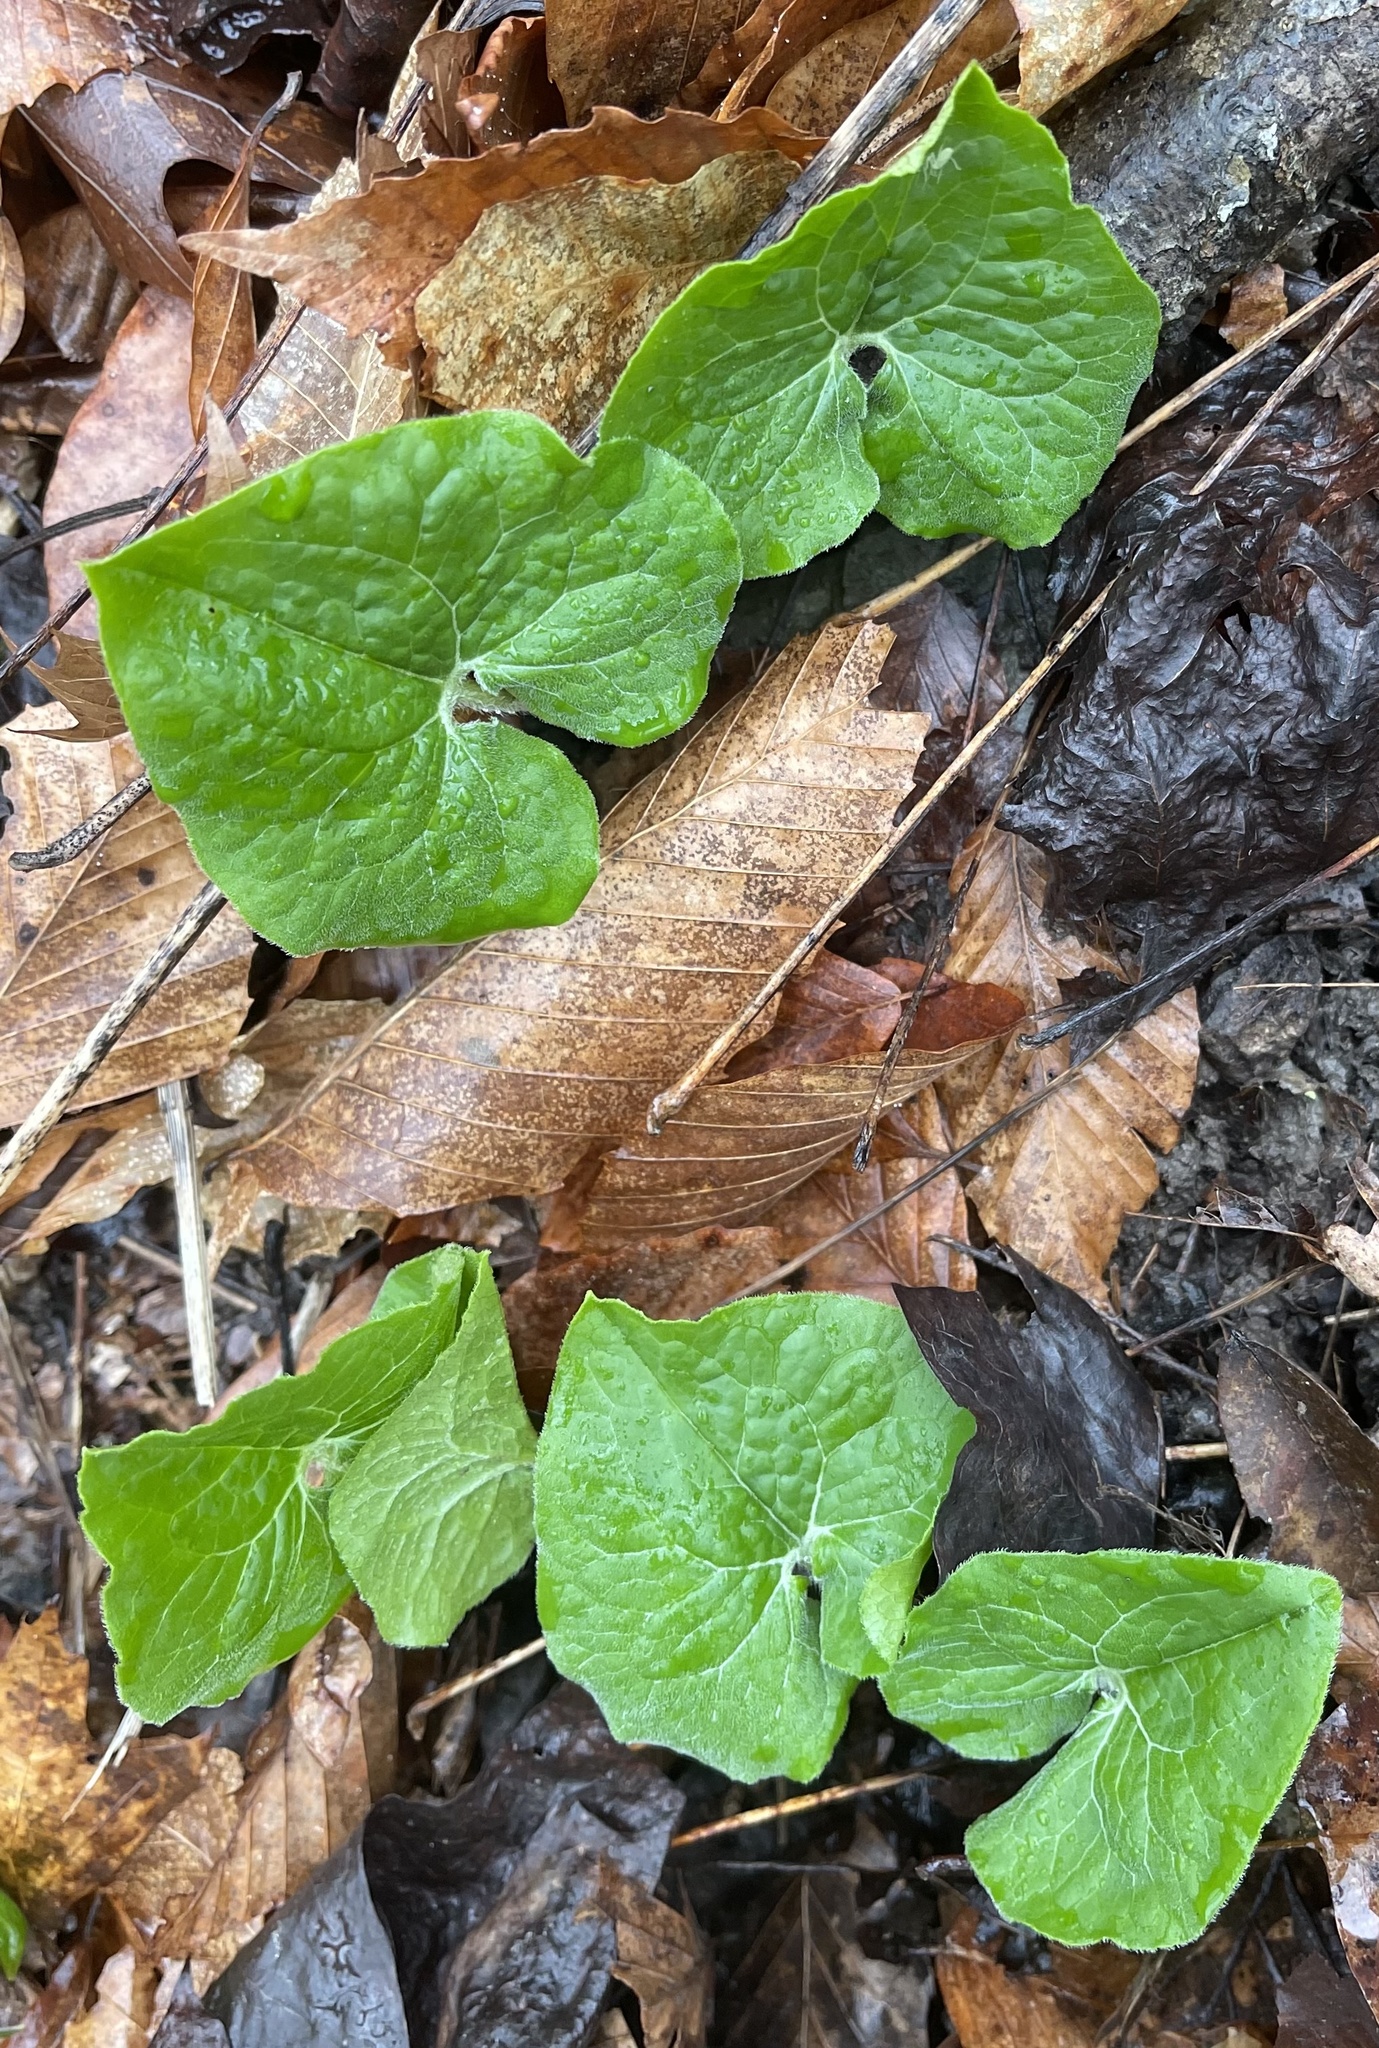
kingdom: Plantae
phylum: Tracheophyta
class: Magnoliopsida
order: Piperales
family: Aristolochiaceae
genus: Asarum
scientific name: Asarum canadense
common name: Wild ginger
